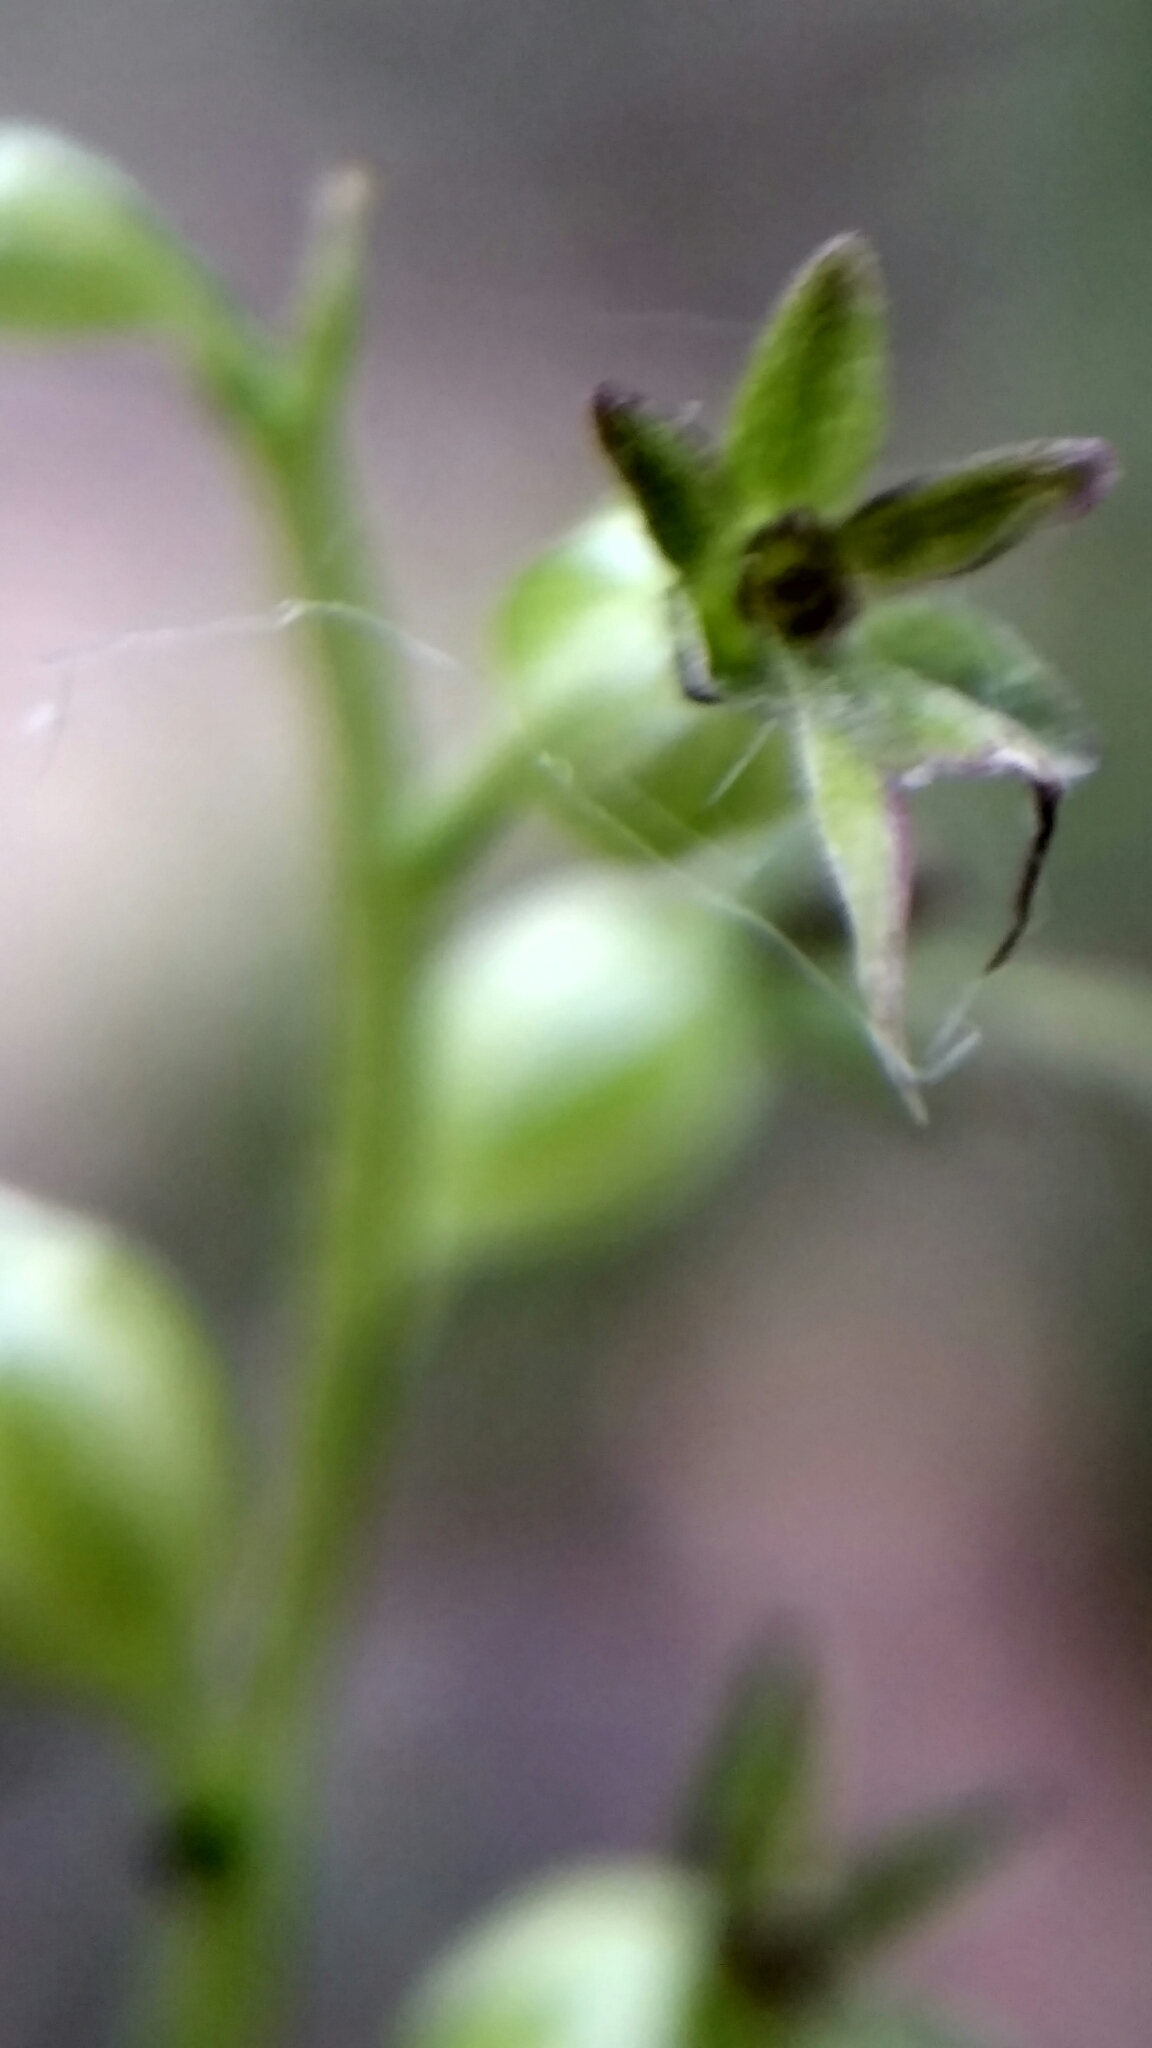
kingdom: Plantae
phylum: Tracheophyta
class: Liliopsida
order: Asparagales
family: Orchidaceae
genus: Neottia
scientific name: Neottia cordata
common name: Lesser twayblade
